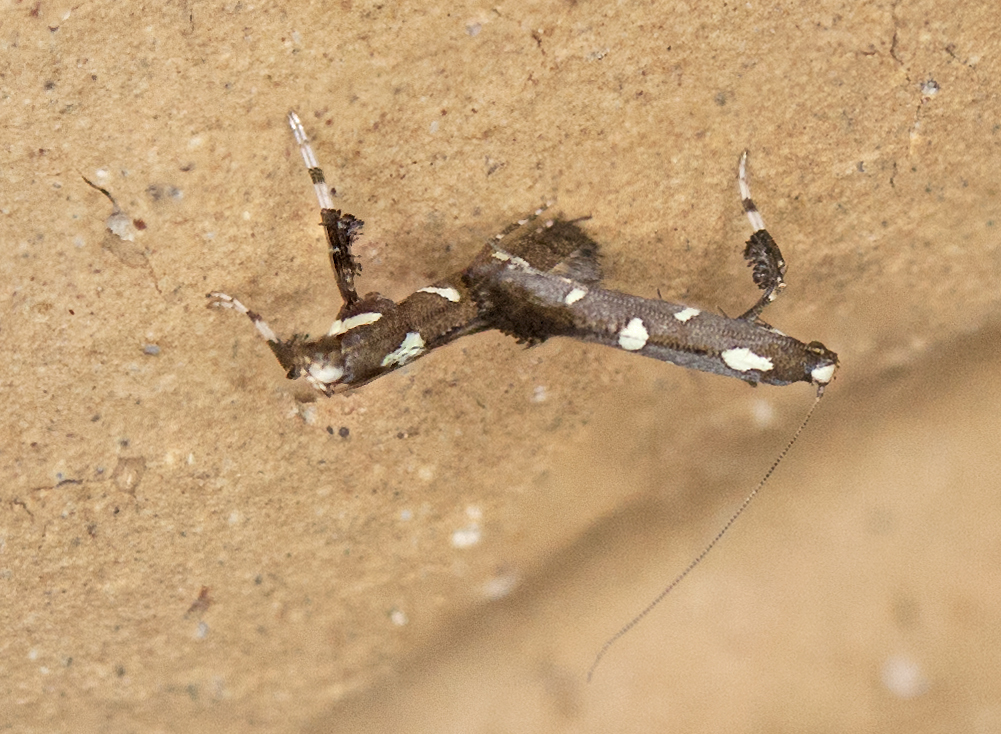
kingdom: Animalia
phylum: Arthropoda
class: Insecta
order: Lepidoptera
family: Gracillariidae
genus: Caloptilia
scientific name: Caloptilia adelosema
